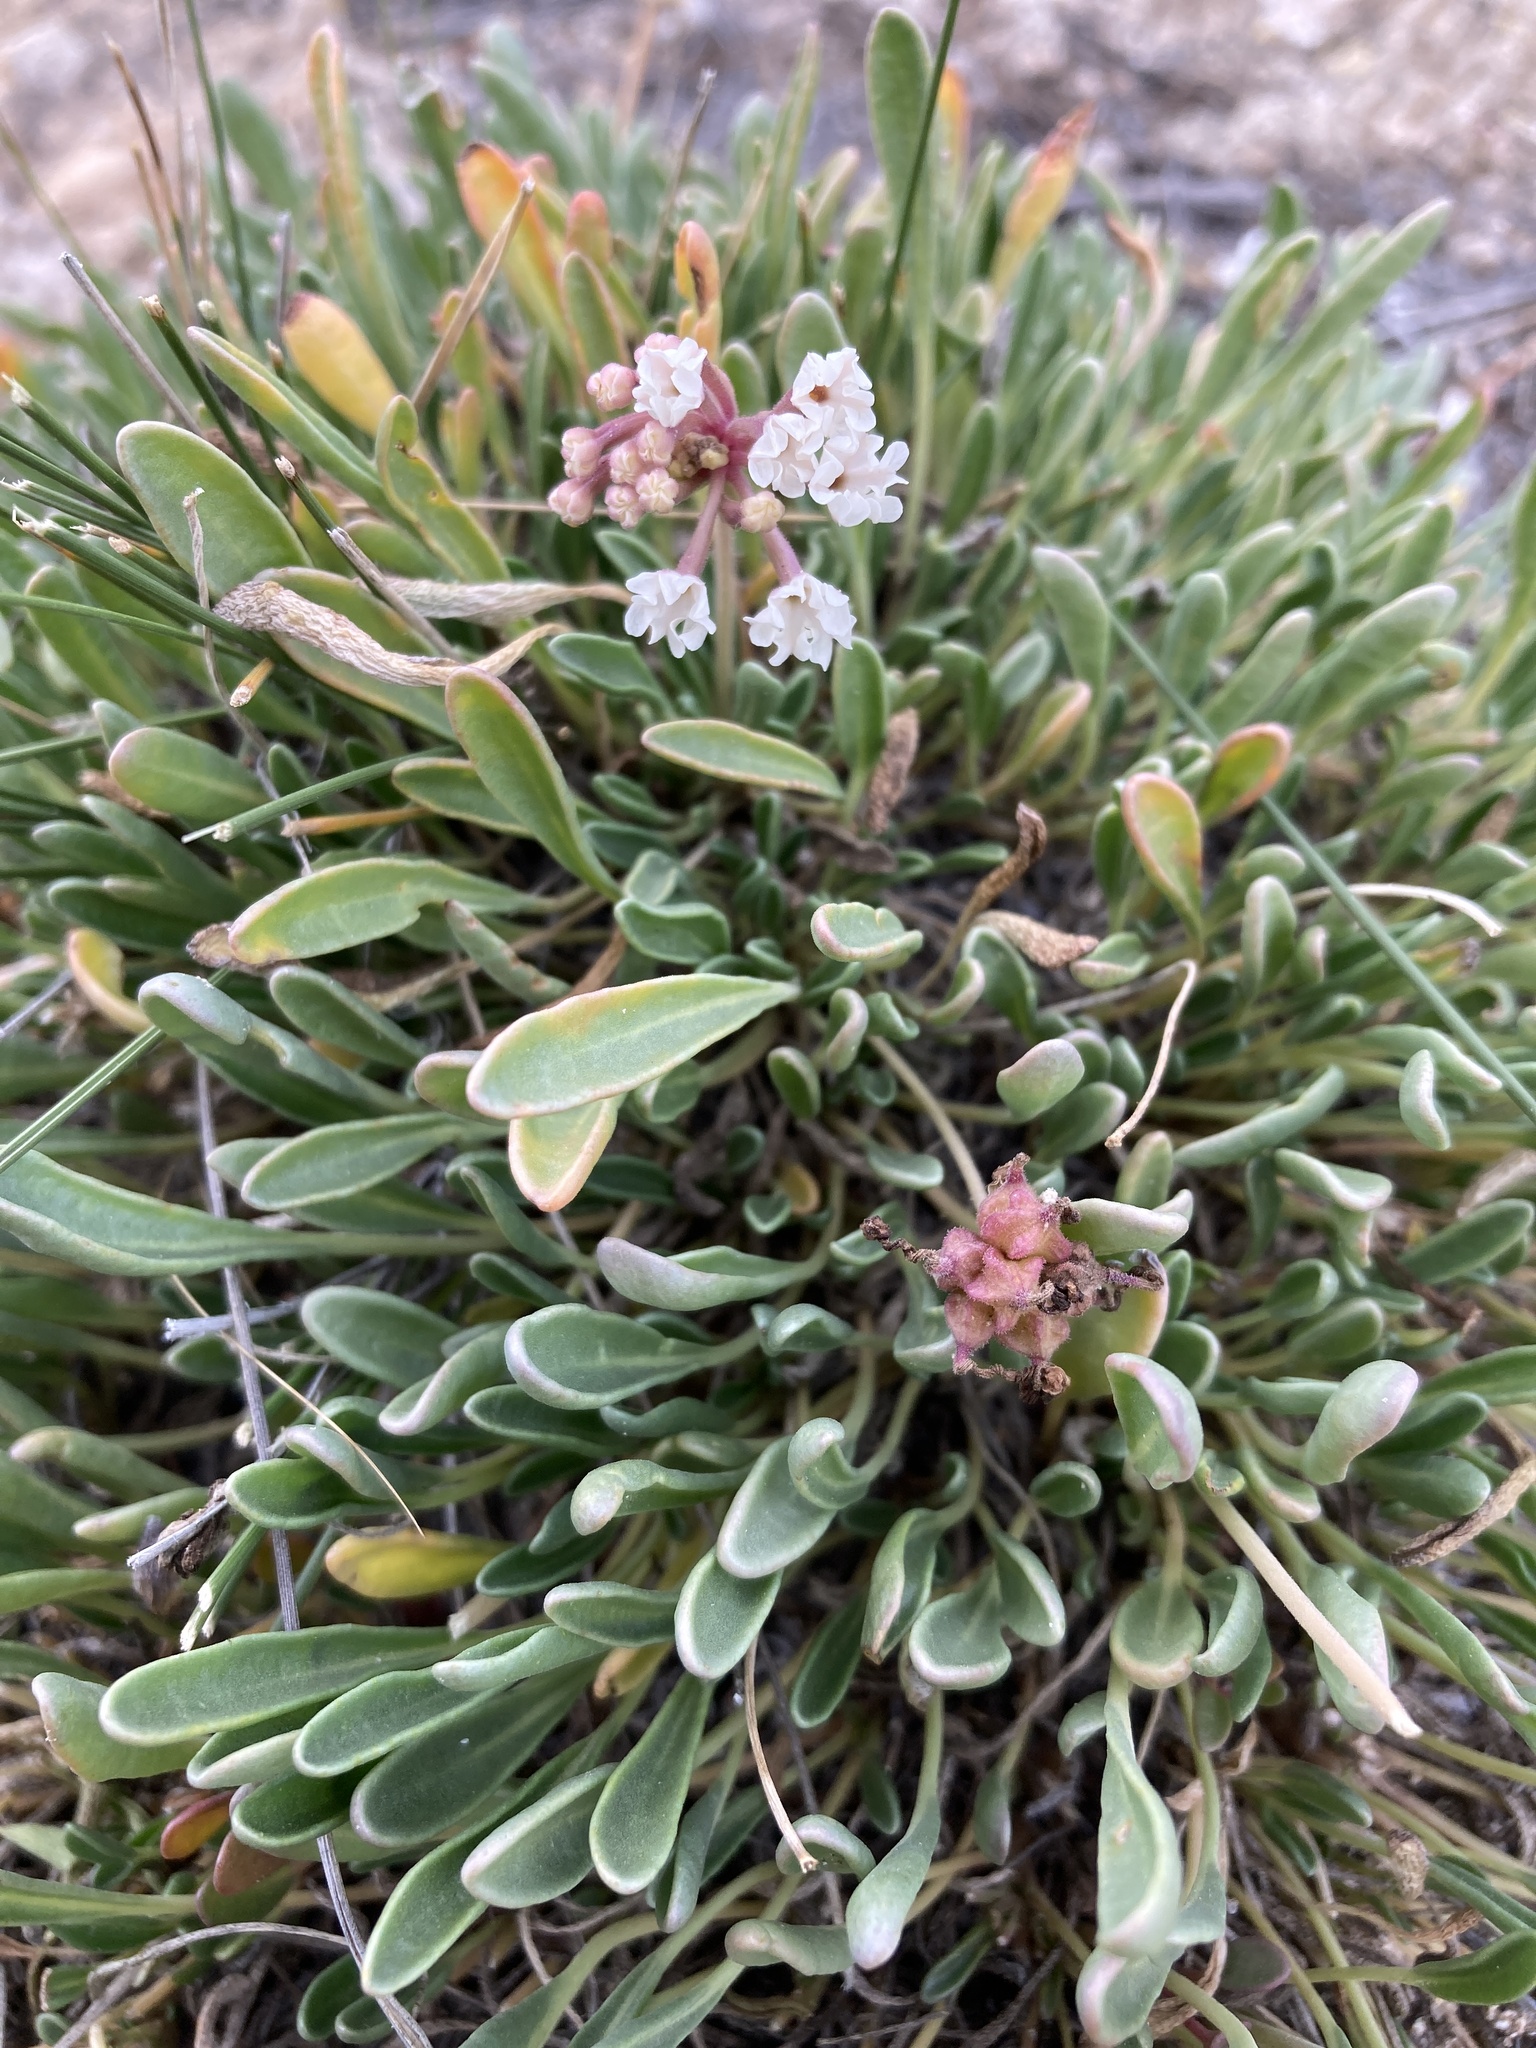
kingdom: Plantae
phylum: Tracheophyta
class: Magnoliopsida
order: Caryophyllales
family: Nyctaginaceae
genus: Abronia
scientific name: Abronia bigelovii
